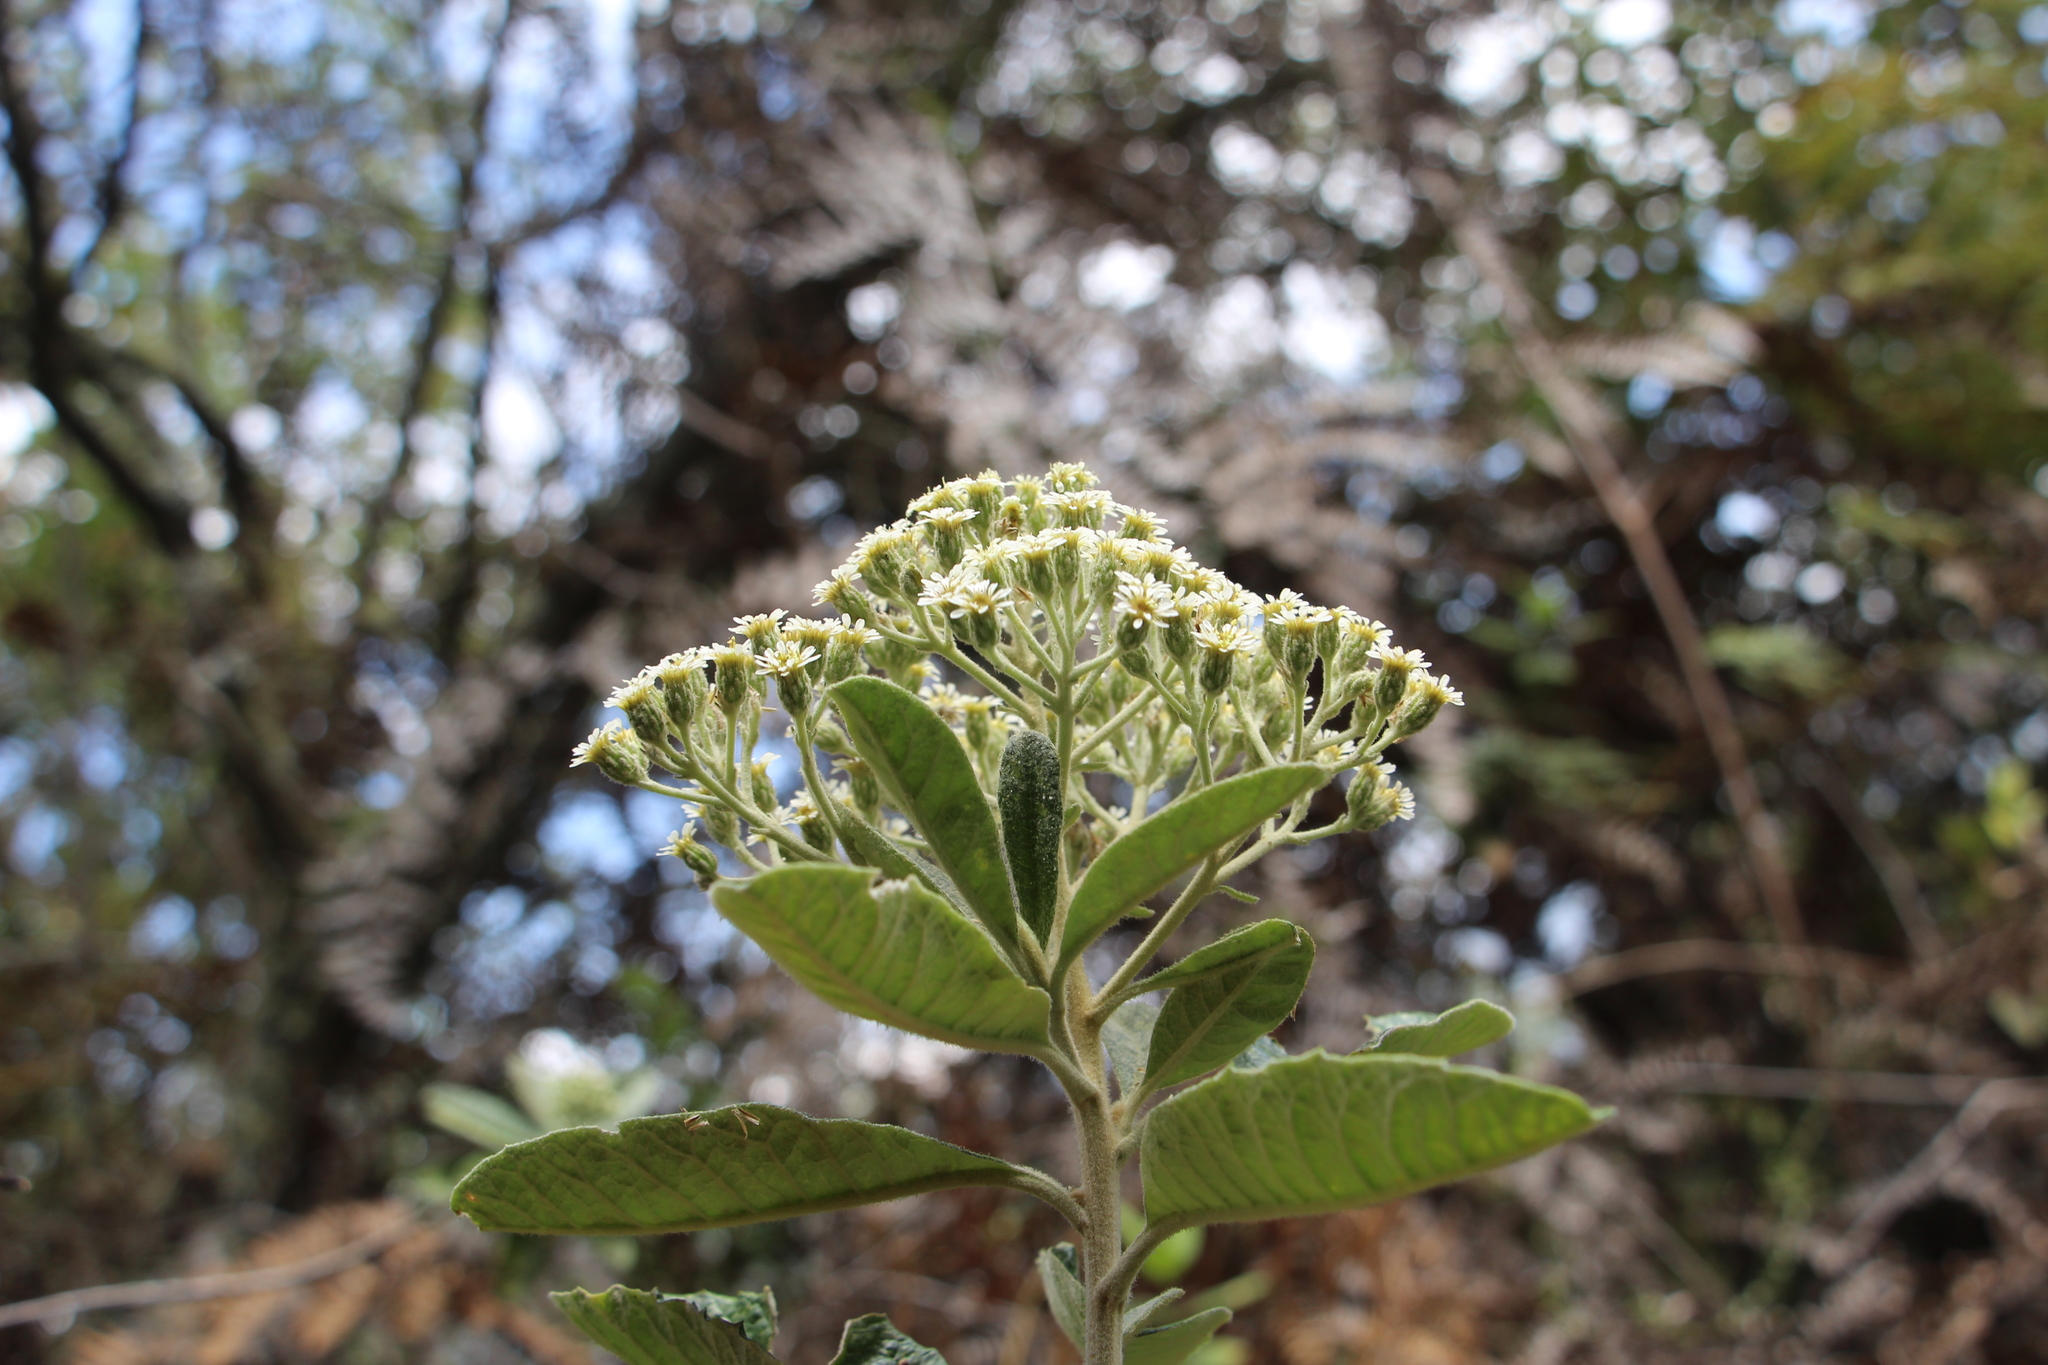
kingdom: Plantae
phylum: Tracheophyta
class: Magnoliopsida
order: Asterales
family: Asteraceae
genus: Linochilus
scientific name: Linochilus tenuifolius
